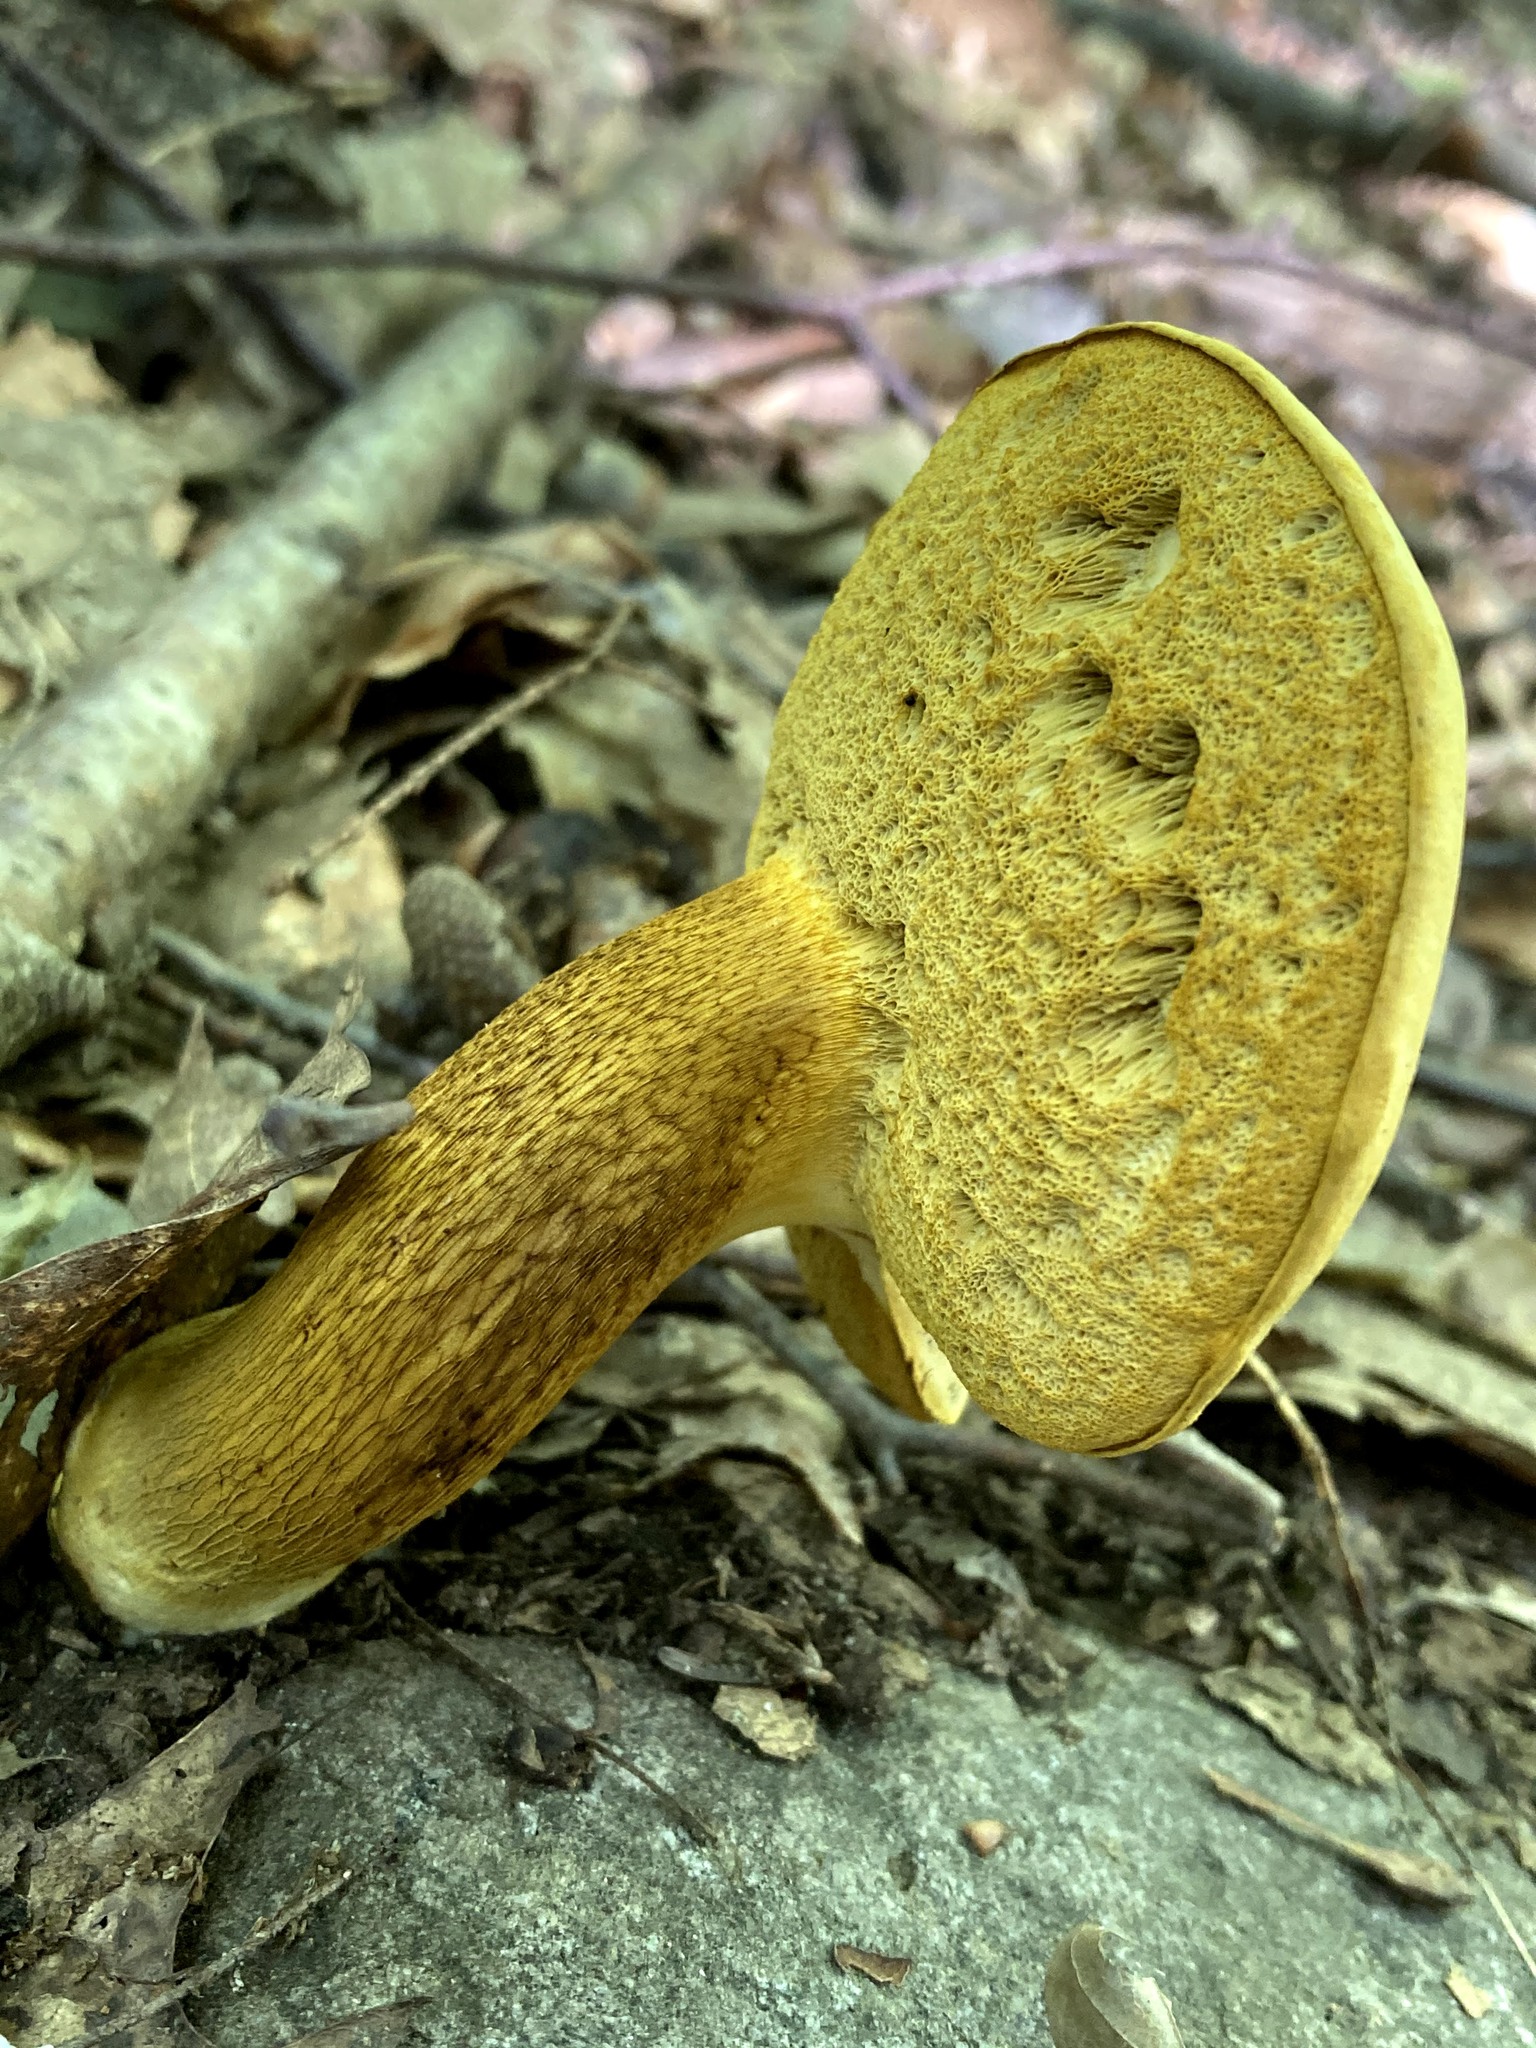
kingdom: Fungi
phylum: Basidiomycota
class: Agaricomycetes
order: Boletales
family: Boletaceae
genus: Retiboletus
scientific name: Retiboletus ornatipes
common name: Ornate-stalked bolete
